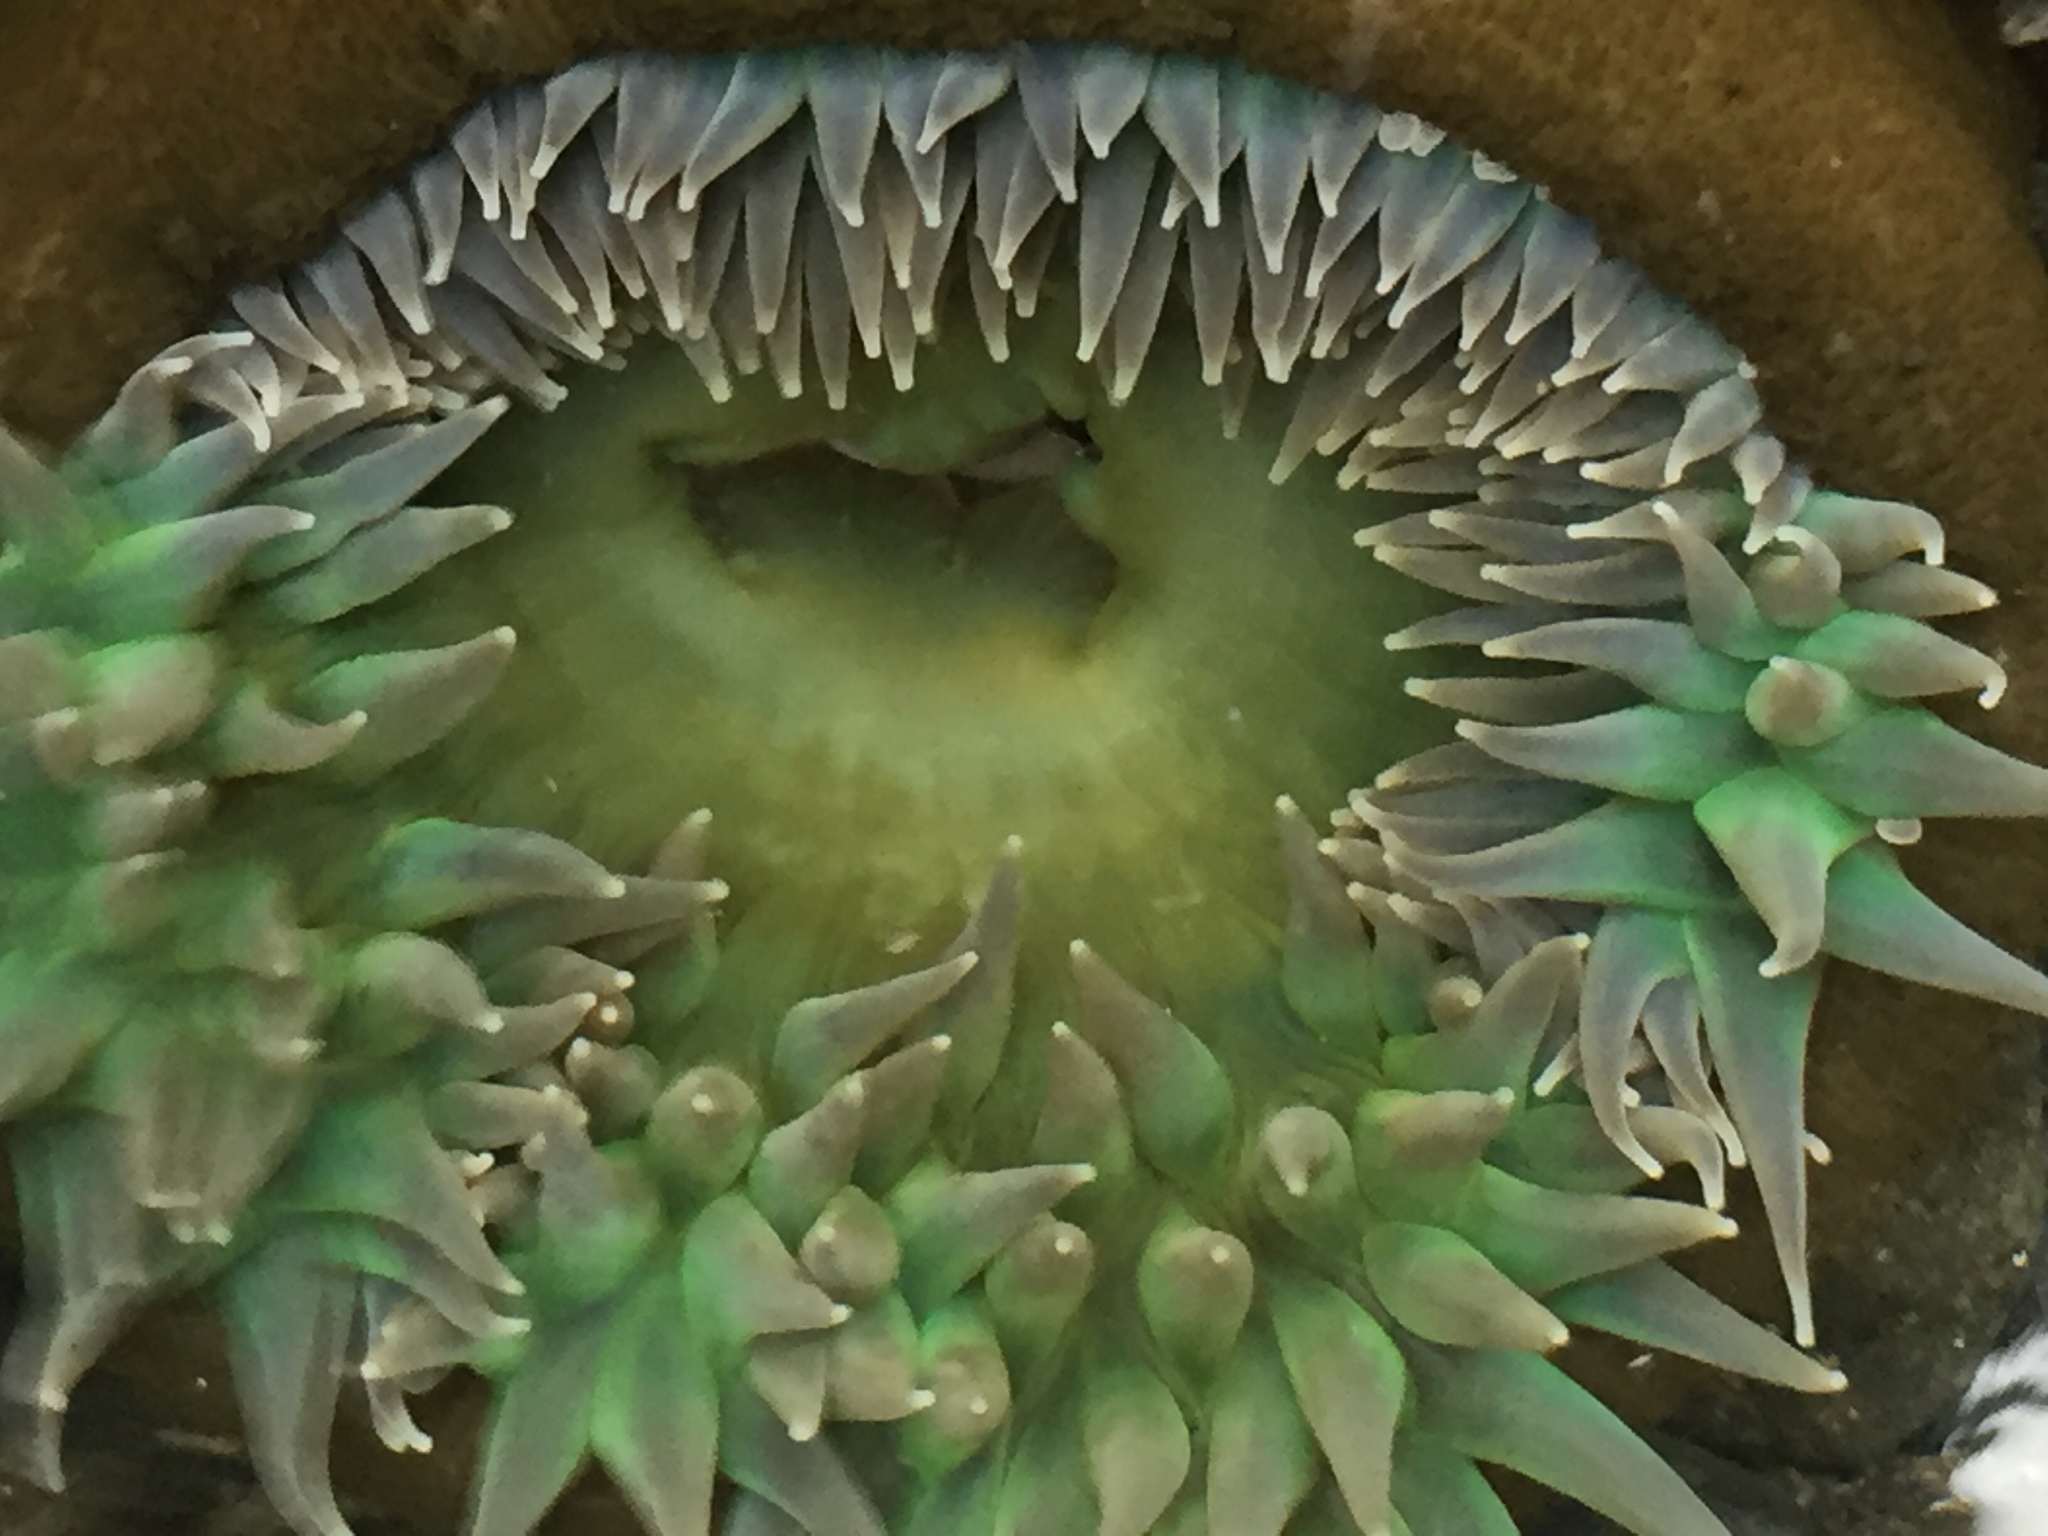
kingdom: Animalia
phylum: Cnidaria
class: Anthozoa
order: Actiniaria
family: Actiniidae
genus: Anthopleura
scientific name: Anthopleura xanthogrammica
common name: Giant green anemone
